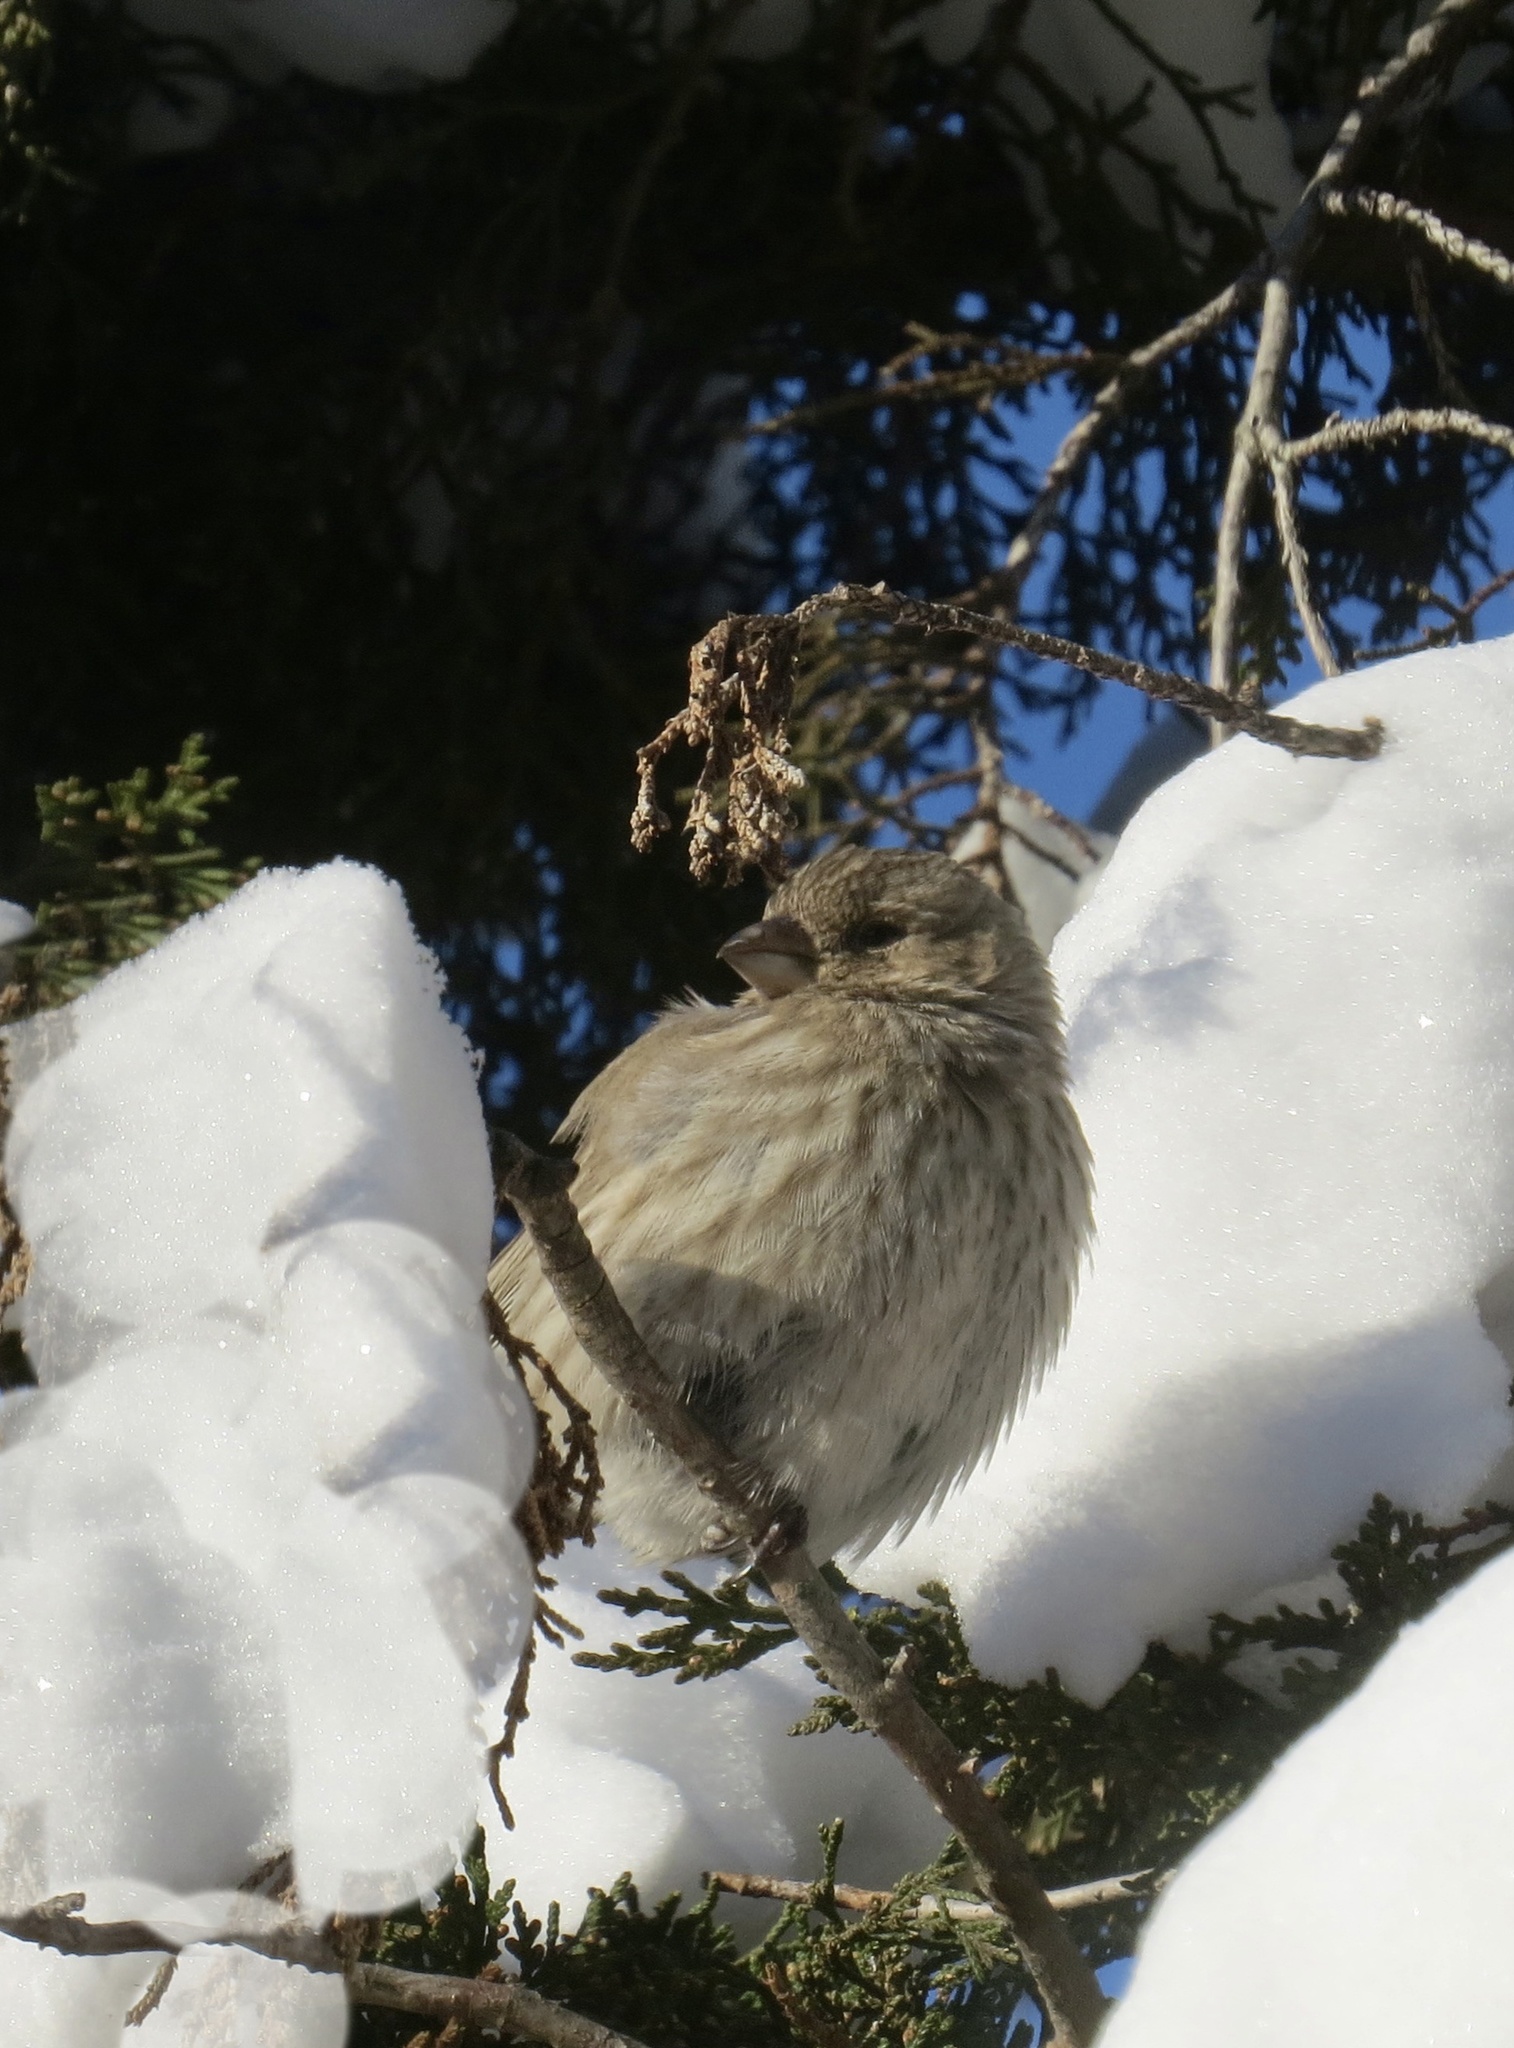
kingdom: Animalia
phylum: Chordata
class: Aves
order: Passeriformes
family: Fringillidae
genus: Haemorhous
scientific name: Haemorhous mexicanus
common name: House finch
